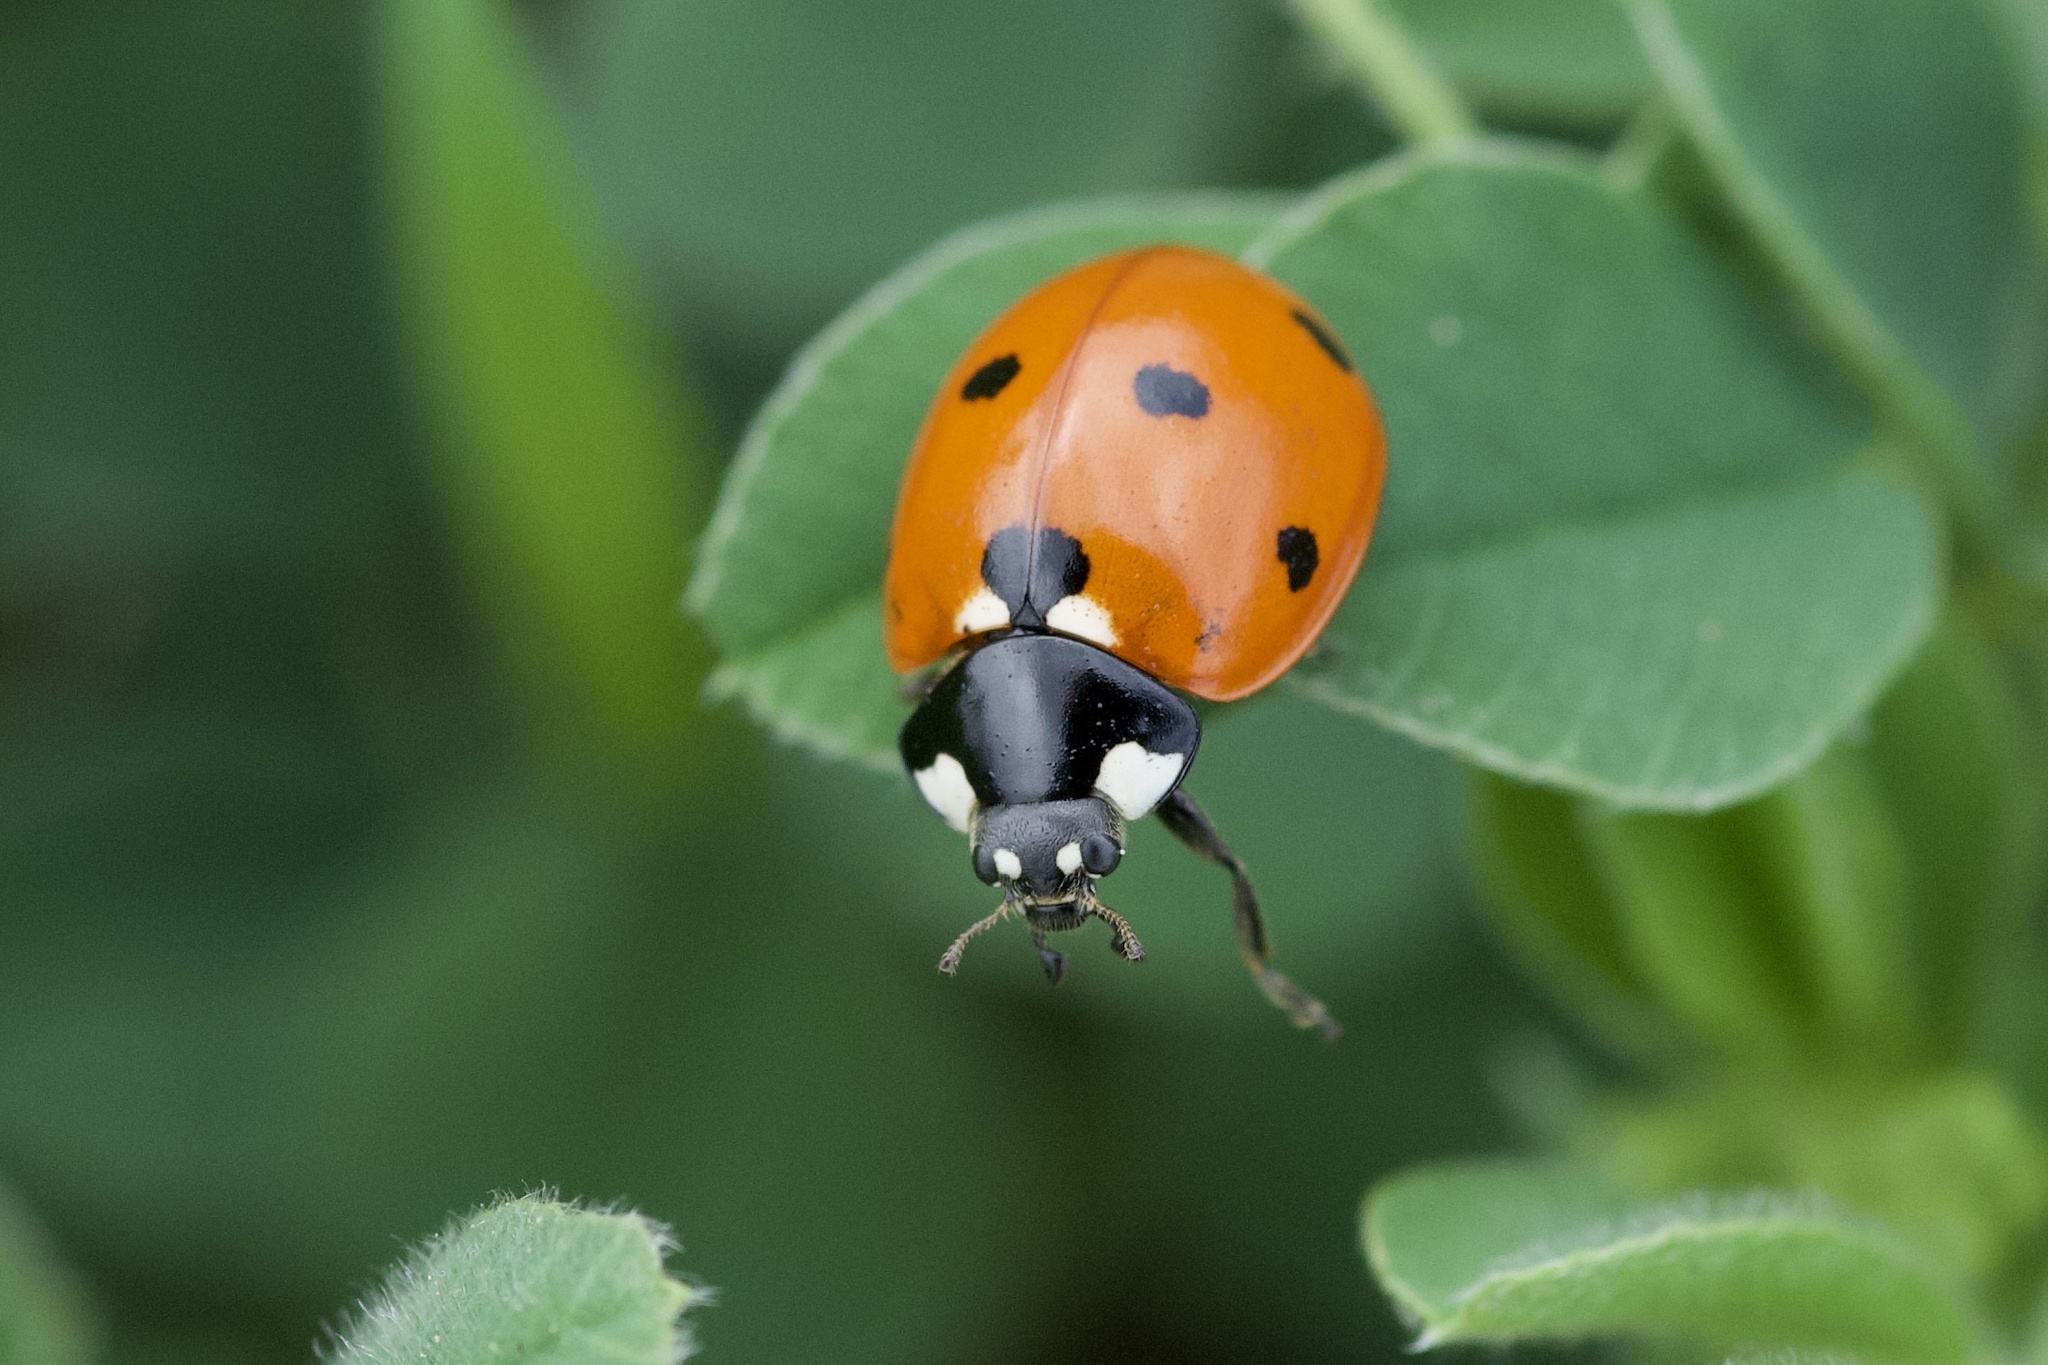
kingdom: Animalia
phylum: Arthropoda
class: Insecta
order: Coleoptera
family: Coccinellidae
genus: Coccinella
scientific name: Coccinella septempunctata
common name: Sevenspotted lady beetle
